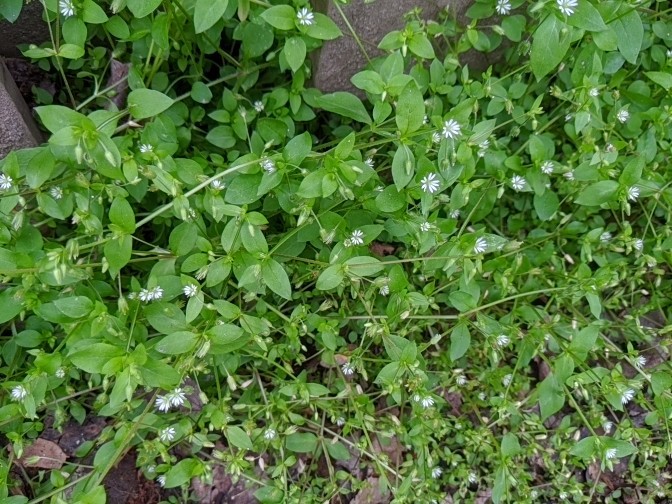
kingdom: Plantae
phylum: Tracheophyta
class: Magnoliopsida
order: Caryophyllales
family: Caryophyllaceae
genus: Stellaria
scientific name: Stellaria media
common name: Common chickweed
